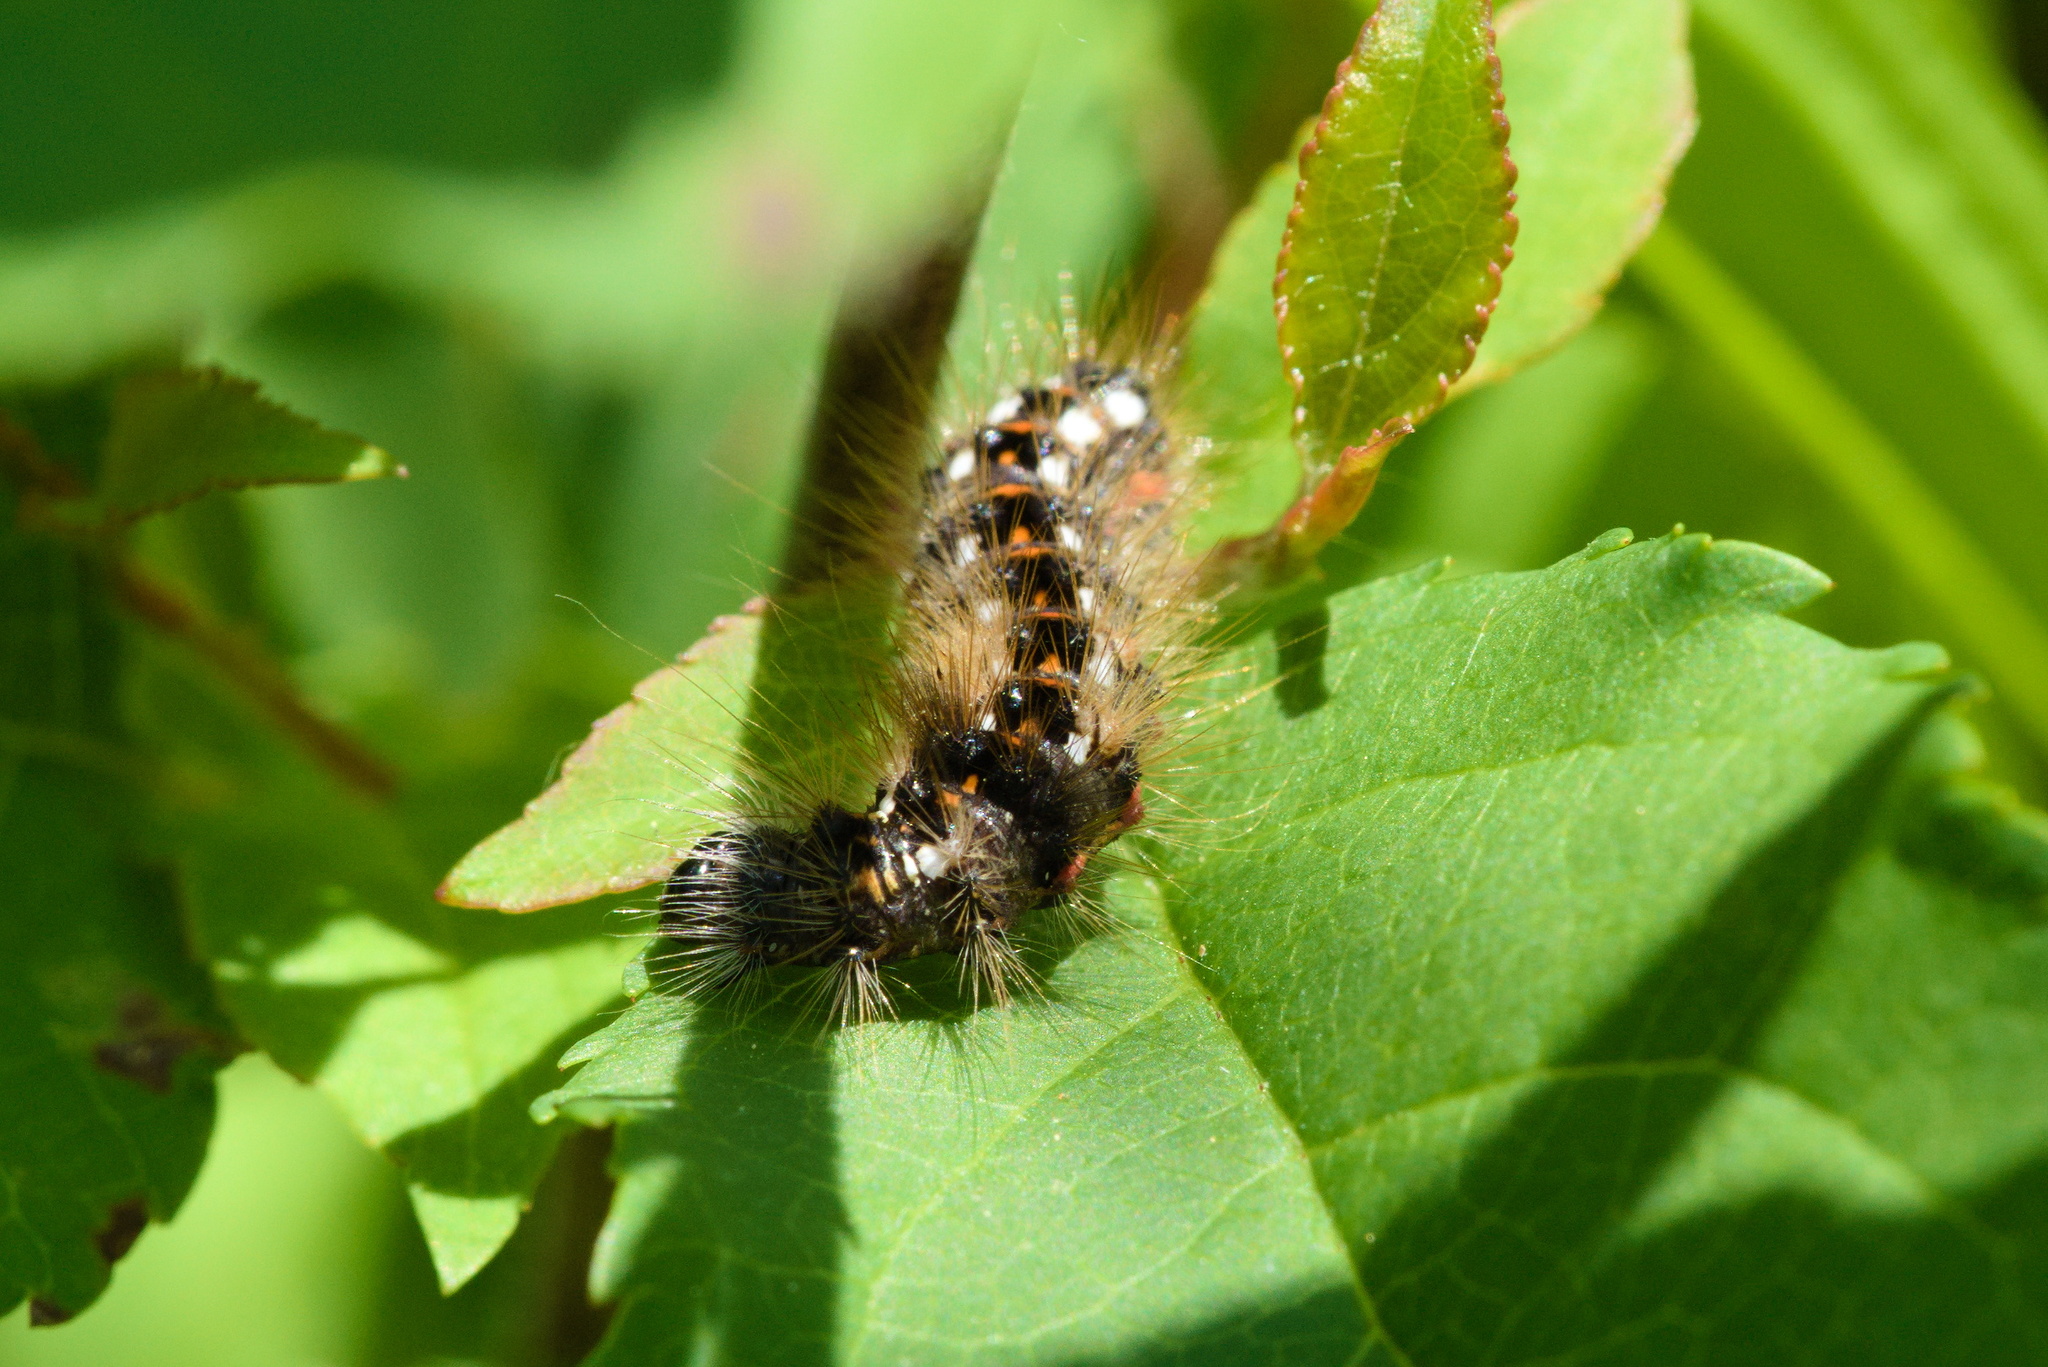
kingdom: Animalia
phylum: Arthropoda
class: Insecta
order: Lepidoptera
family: Noctuidae
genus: Acronicta
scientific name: Acronicta rumicis
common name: Knot grass
